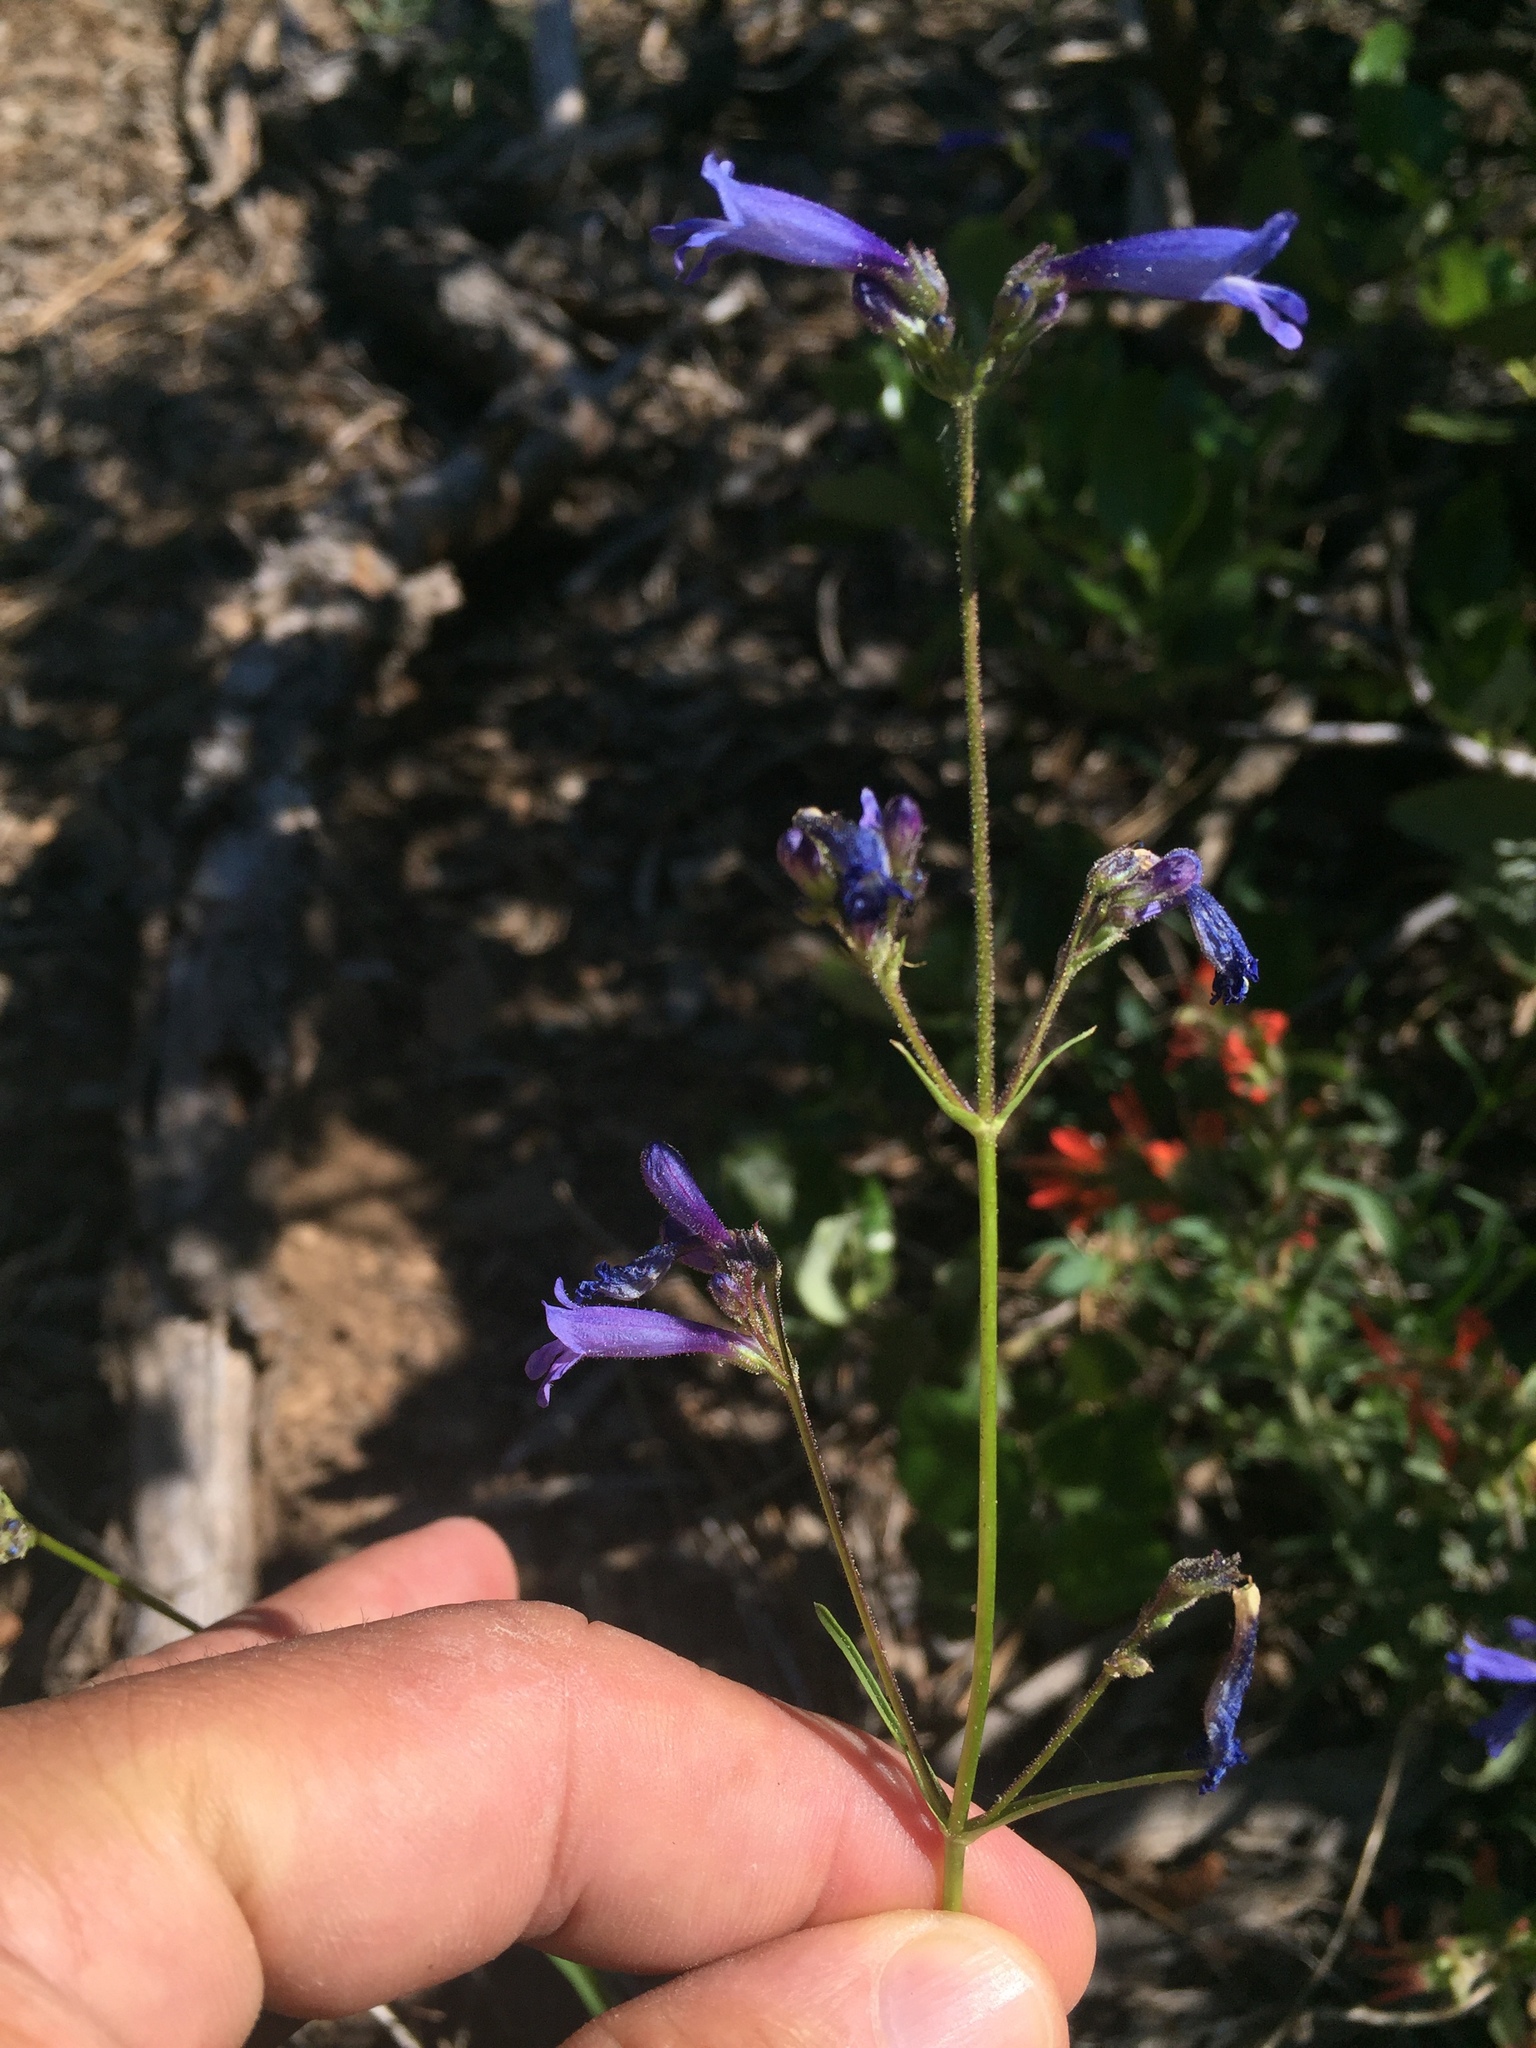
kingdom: Plantae
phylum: Tracheophyta
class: Magnoliopsida
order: Lamiales
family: Plantaginaceae
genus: Penstemon
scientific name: Penstemon gracilentus
